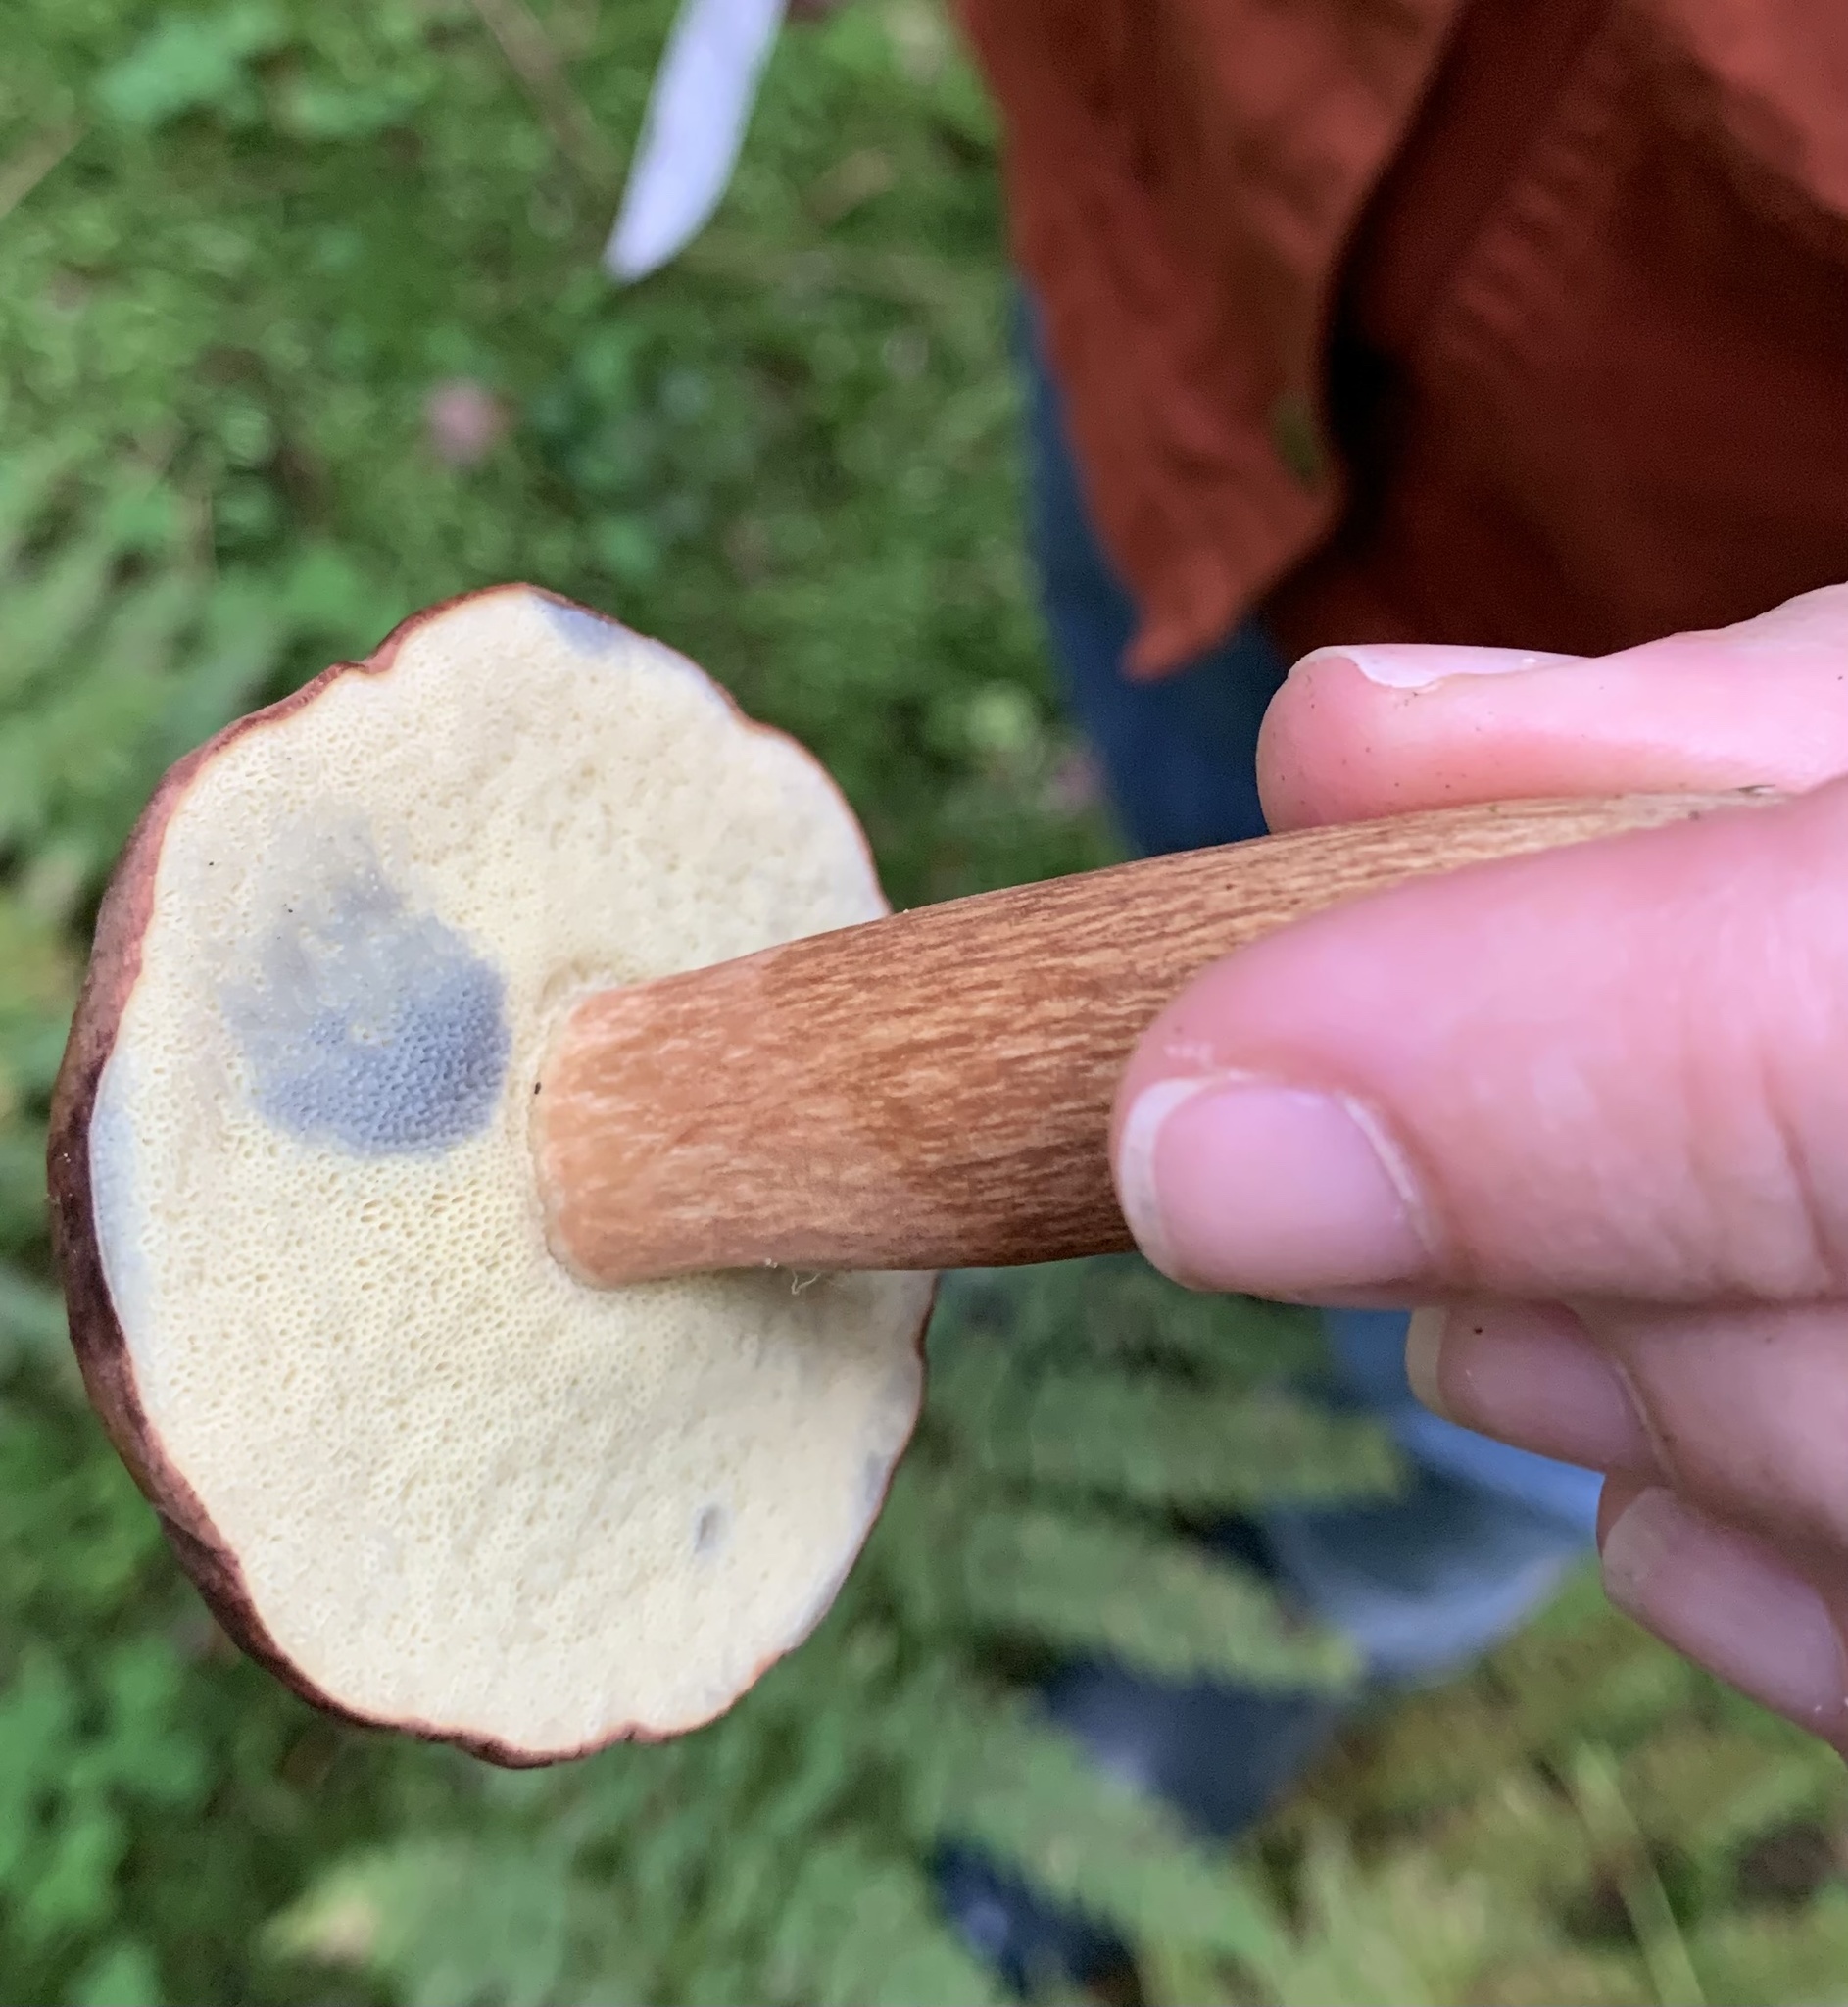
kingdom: Fungi
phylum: Basidiomycota
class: Agaricomycetes
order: Boletales
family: Boletaceae
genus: Imleria
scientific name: Imleria badia
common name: Bay bolete
